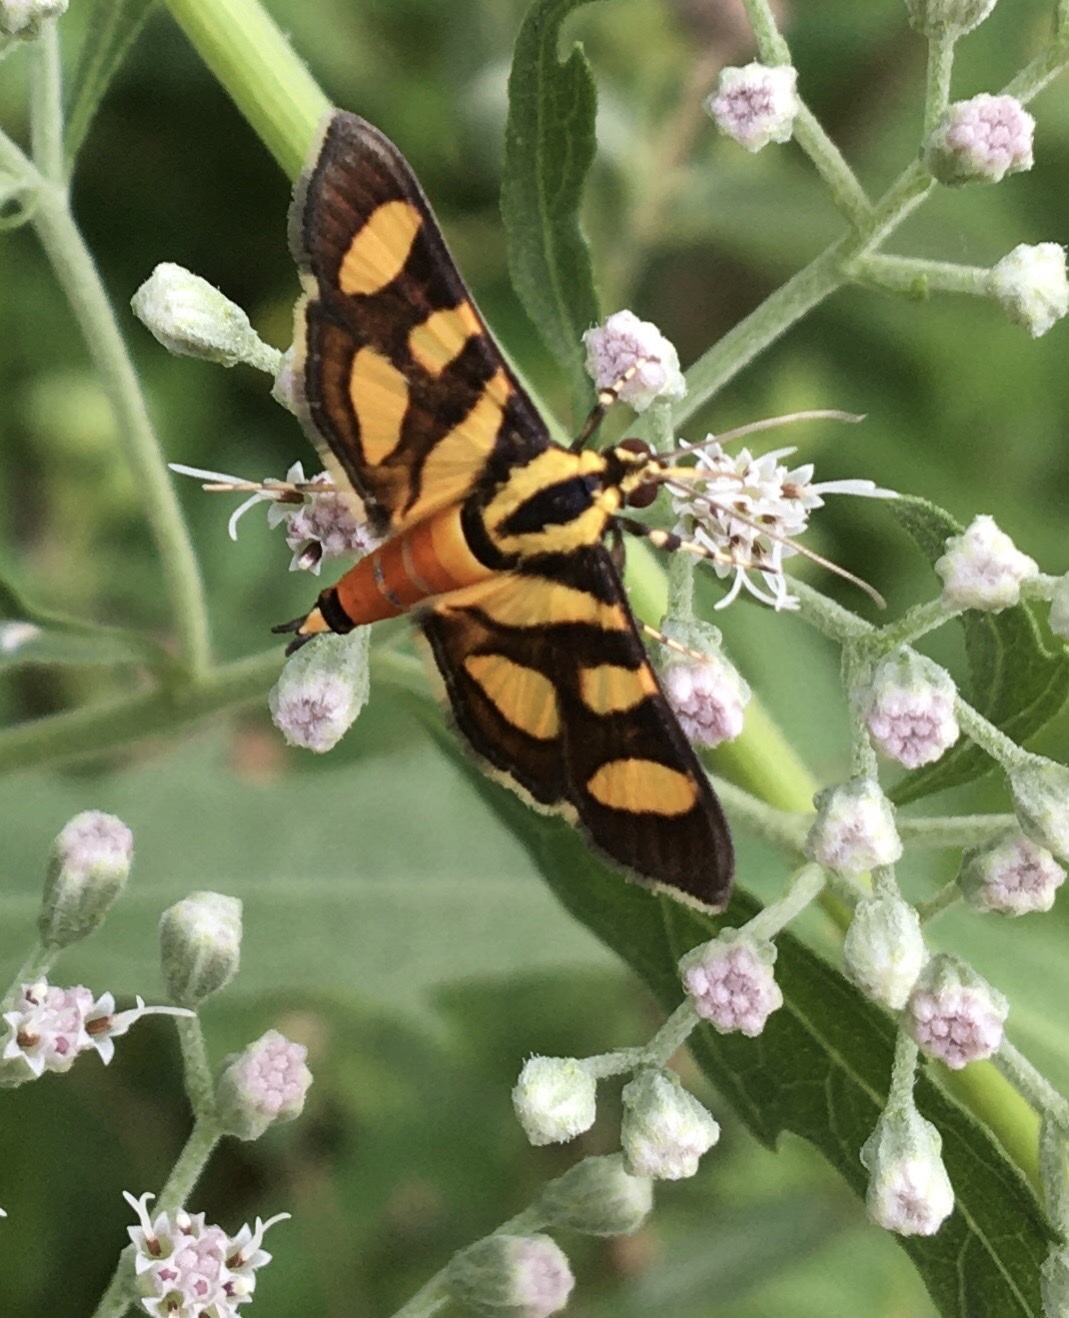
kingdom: Animalia
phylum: Arthropoda
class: Insecta
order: Lepidoptera
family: Crambidae
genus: Syngamia
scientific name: Syngamia florella
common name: Orange-spotted flower moth
